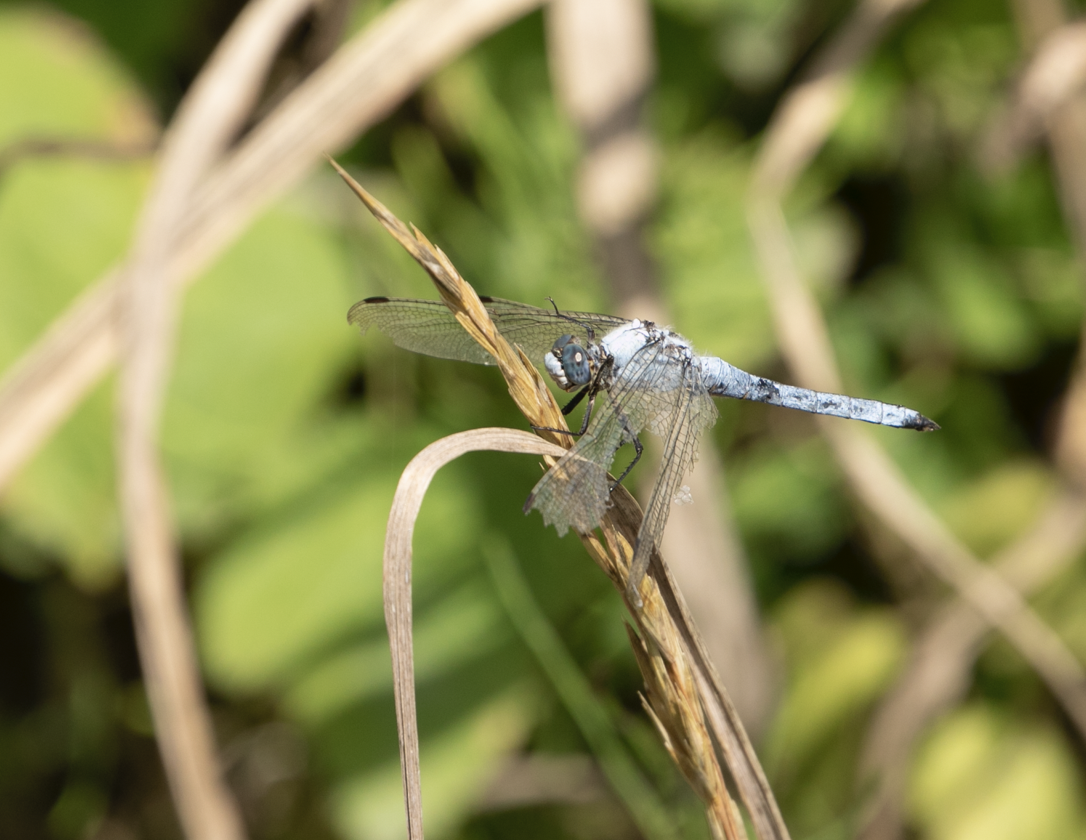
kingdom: Animalia
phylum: Arthropoda
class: Insecta
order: Odonata
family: Libellulidae
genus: Orthetrum
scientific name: Orthetrum brunneum
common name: Southern skimmer
